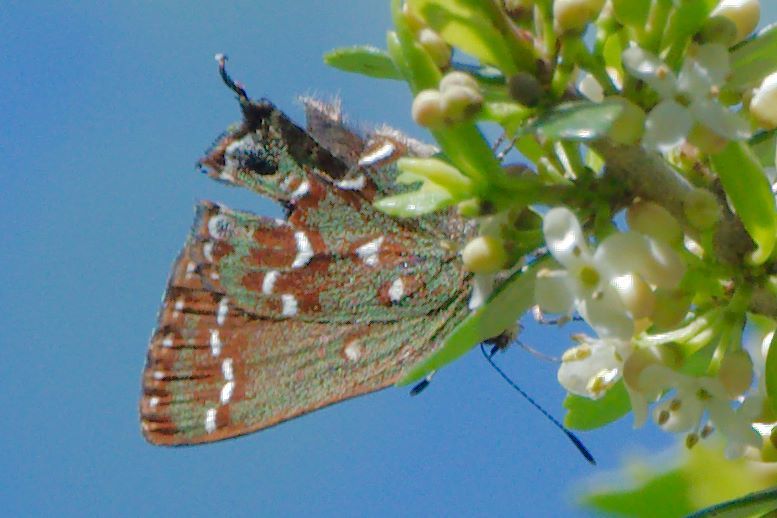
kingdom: Animalia
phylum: Arthropoda
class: Insecta
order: Lepidoptera
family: Lycaenidae
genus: Mitoura
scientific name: Mitoura hesseli
